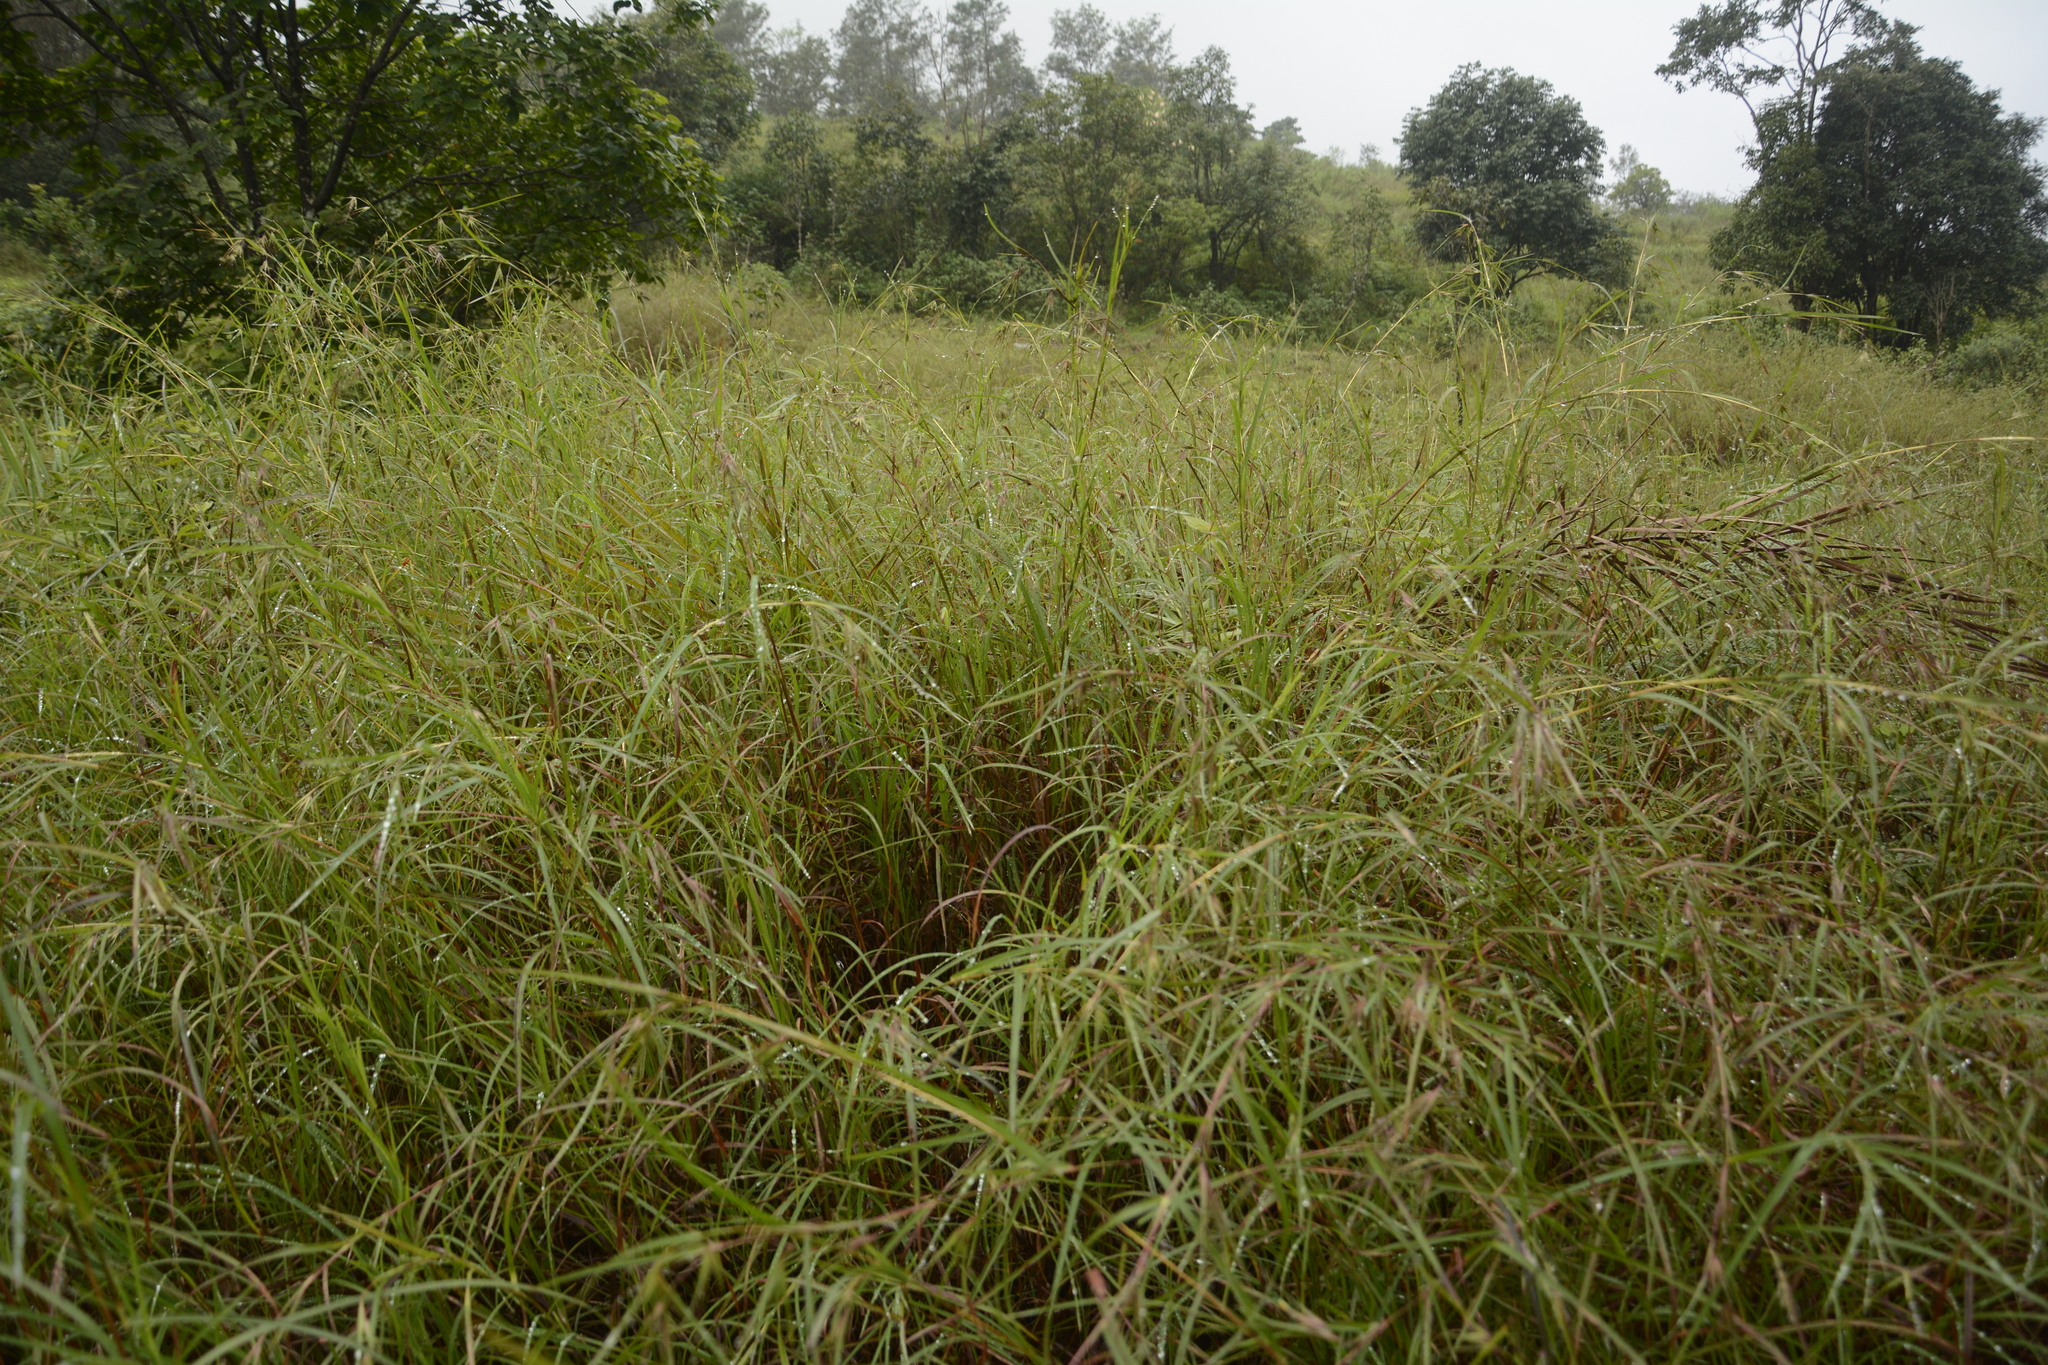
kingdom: Plantae
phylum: Tracheophyta
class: Liliopsida
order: Poales
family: Poaceae
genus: Themeda
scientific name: Themeda triandra
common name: Kangaroo grass
